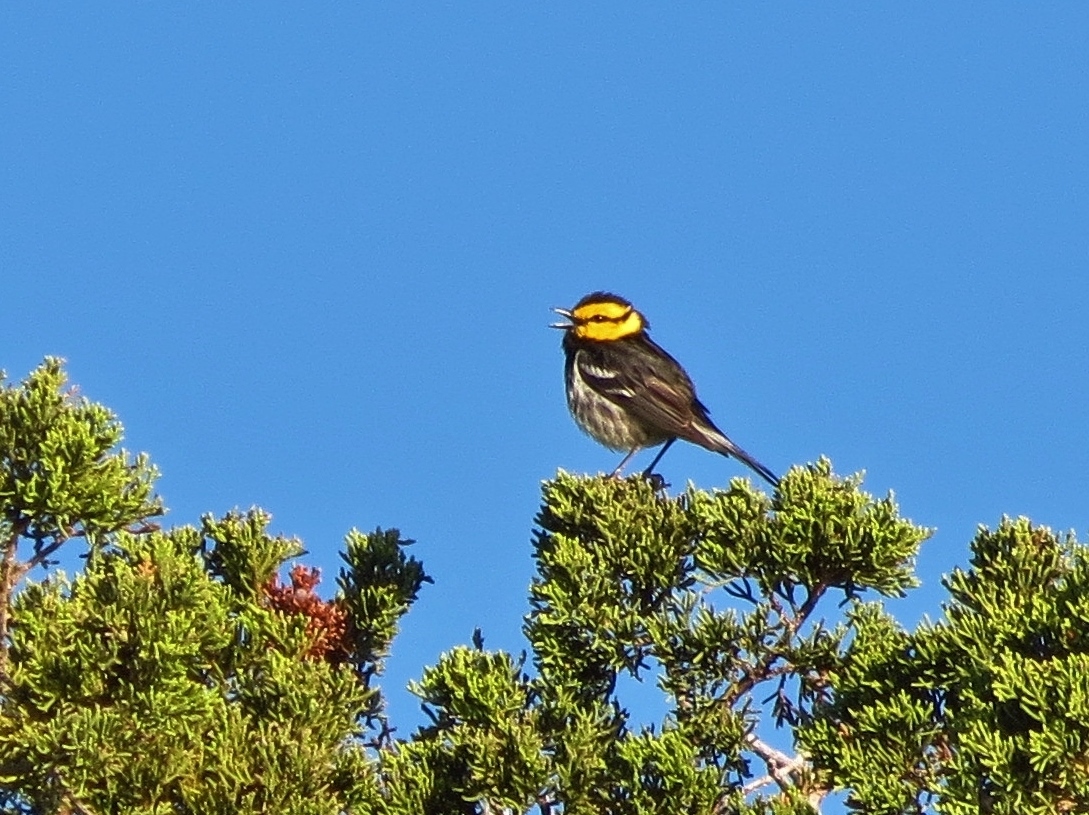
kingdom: Animalia
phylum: Chordata
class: Aves
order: Passeriformes
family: Parulidae
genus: Setophaga
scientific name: Setophaga chrysoparia
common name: Golden-cheeked warbler
